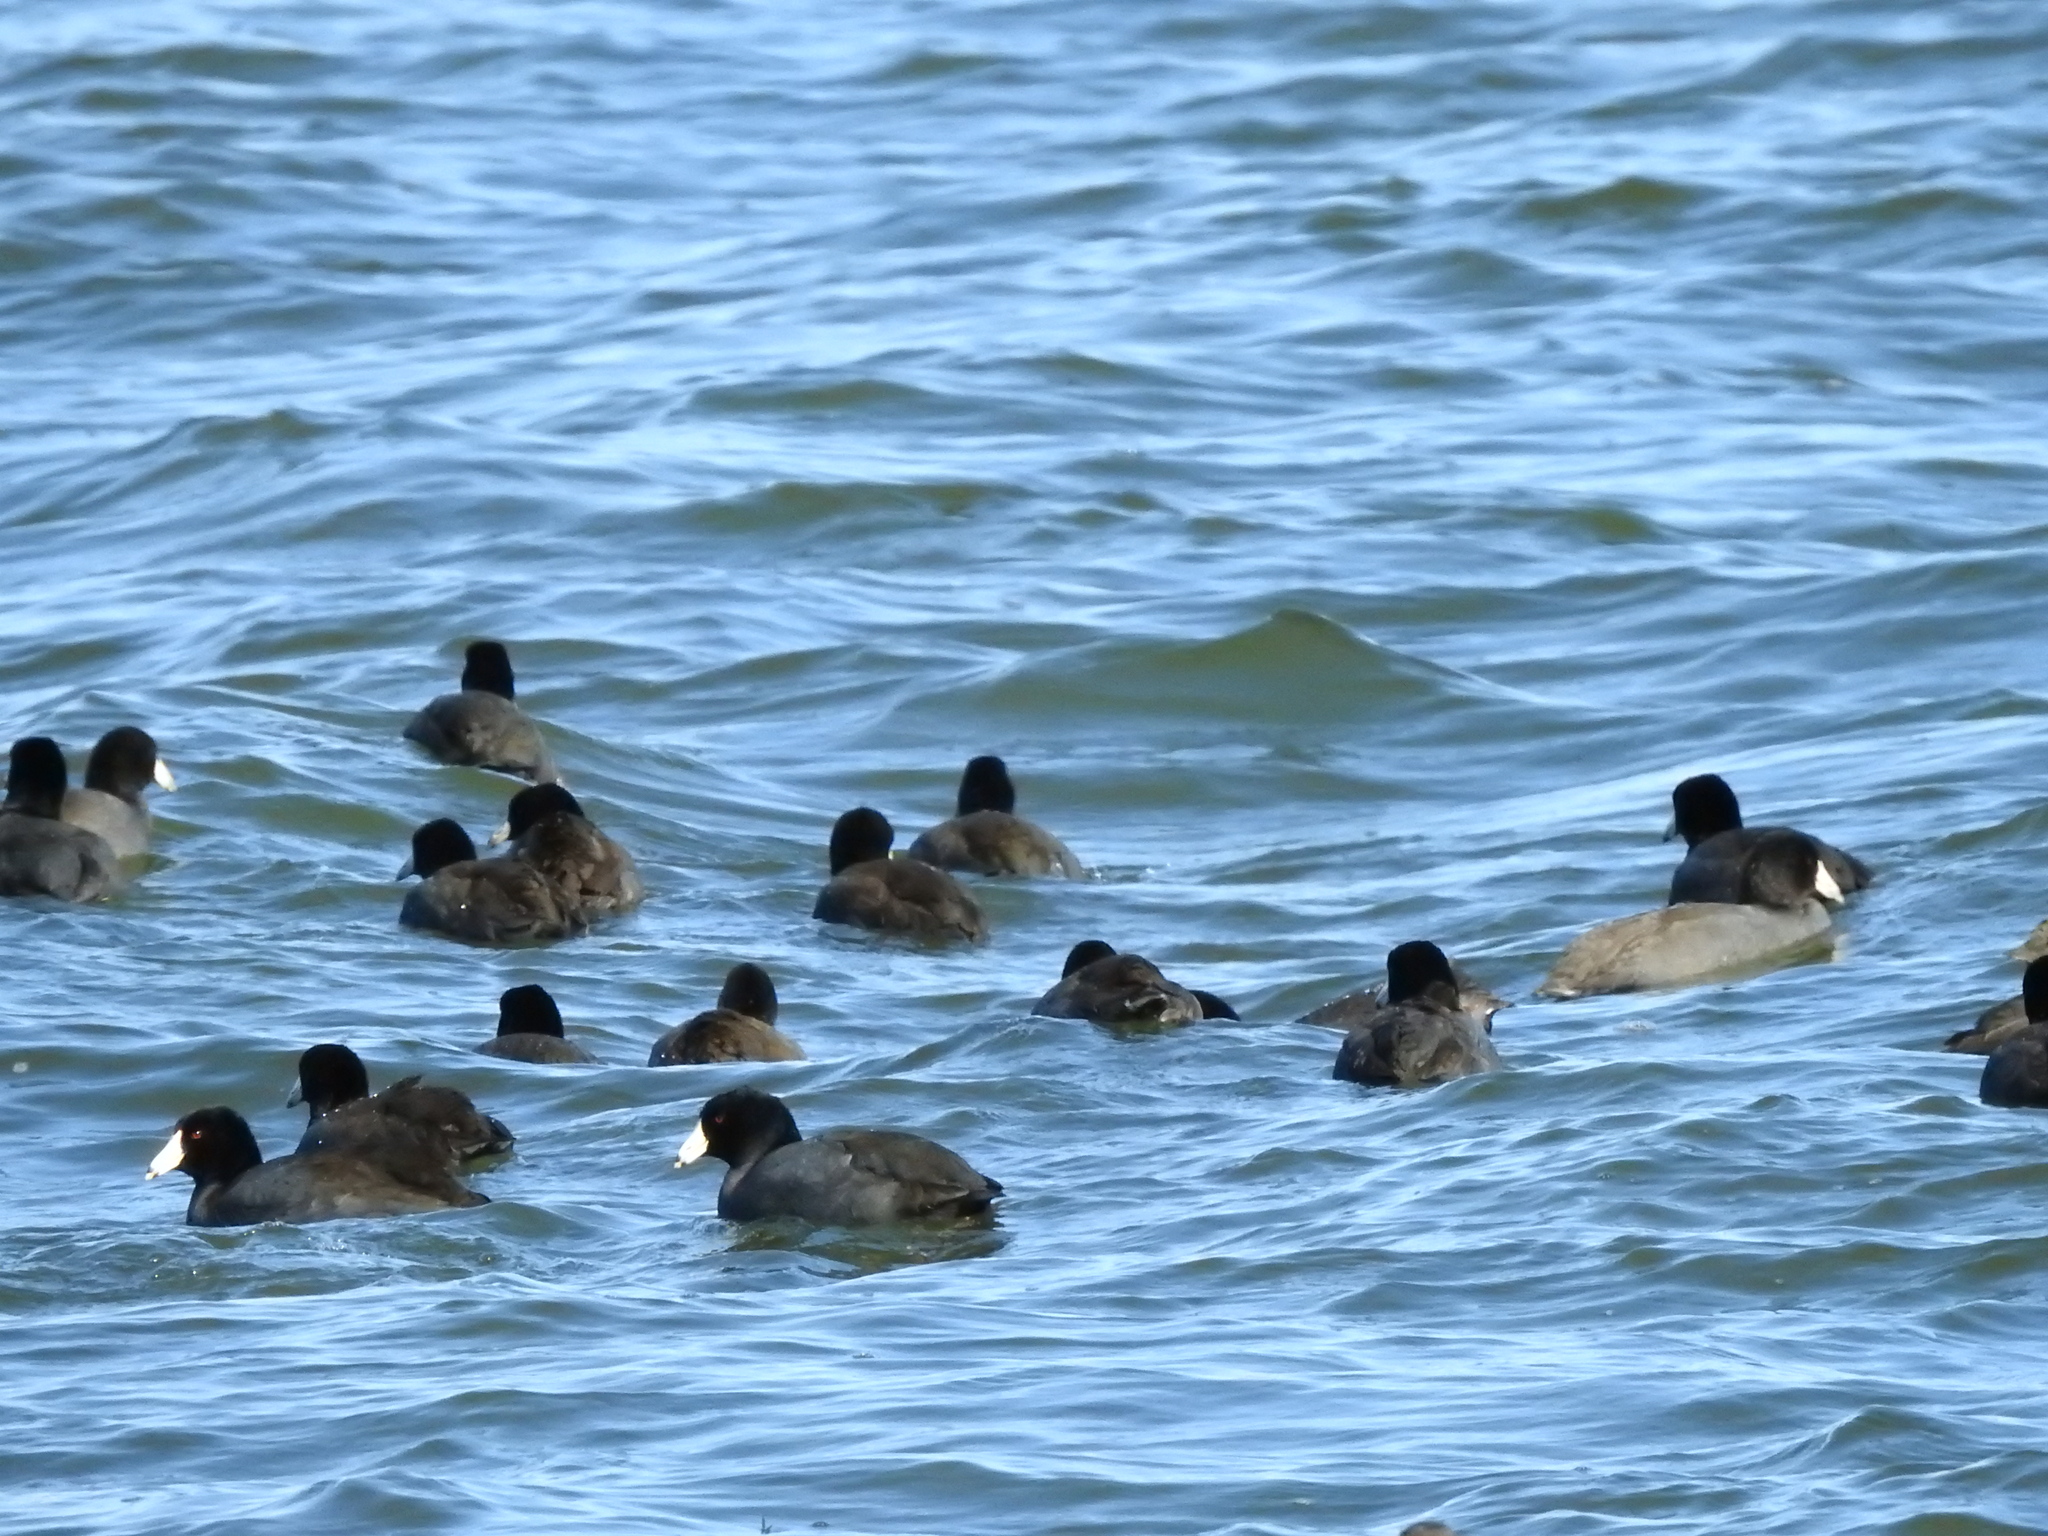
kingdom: Animalia
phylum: Chordata
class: Aves
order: Gruiformes
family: Rallidae
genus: Fulica
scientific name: Fulica americana
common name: American coot
